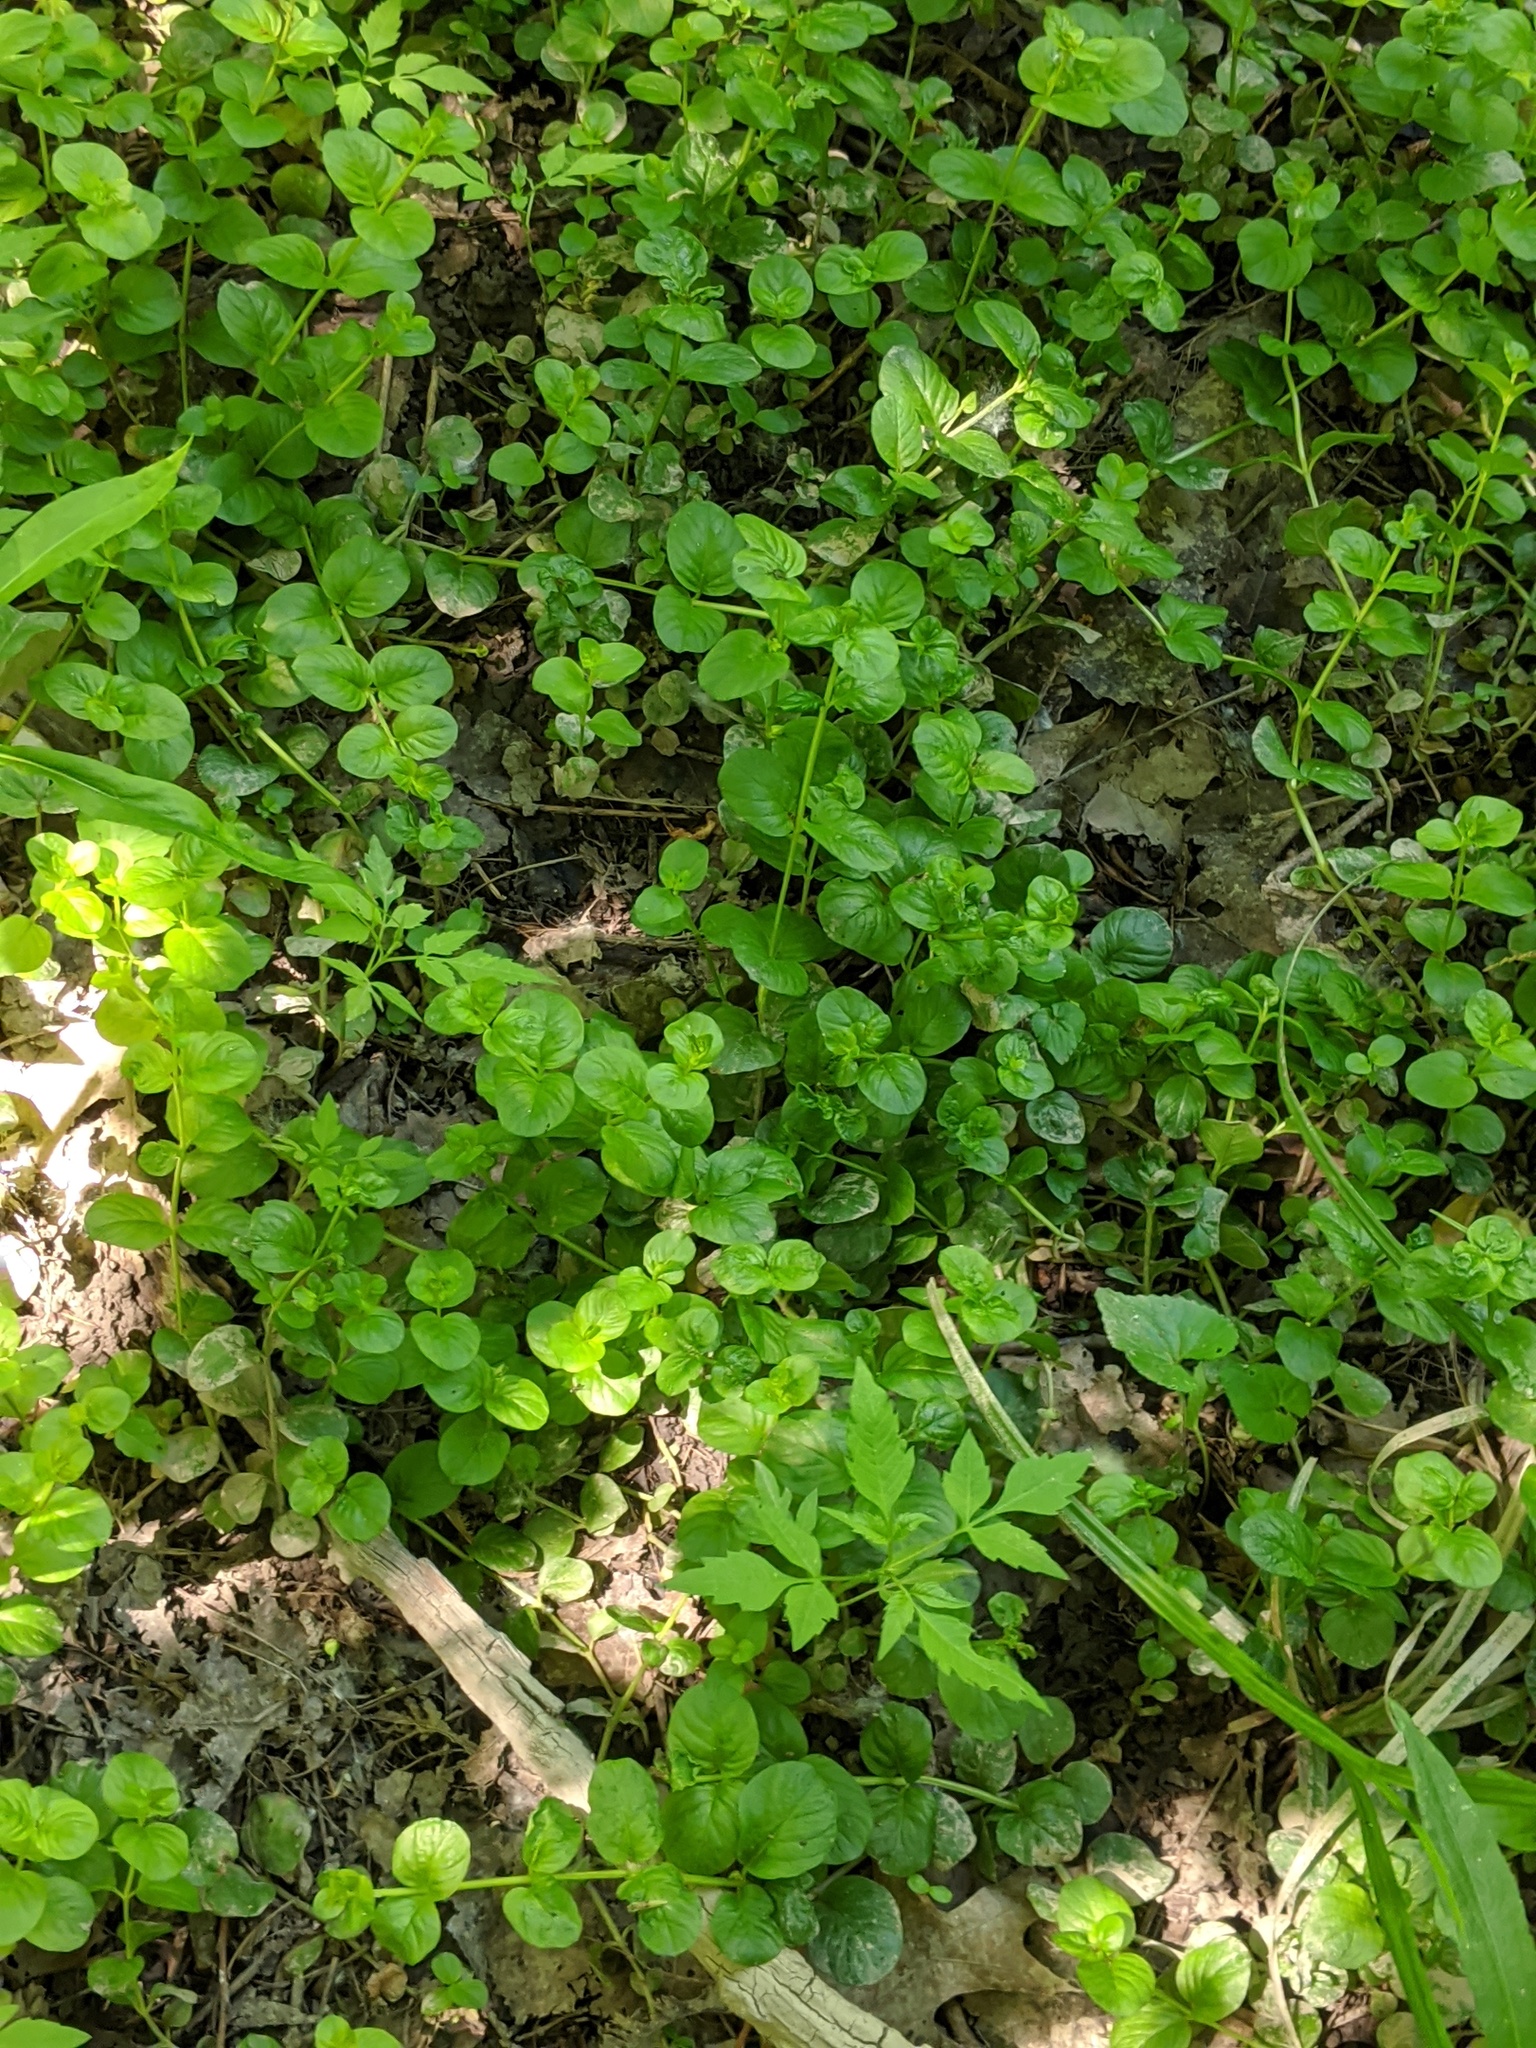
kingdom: Plantae
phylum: Tracheophyta
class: Magnoliopsida
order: Ericales
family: Primulaceae
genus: Lysimachia
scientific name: Lysimachia nummularia
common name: Moneywort
